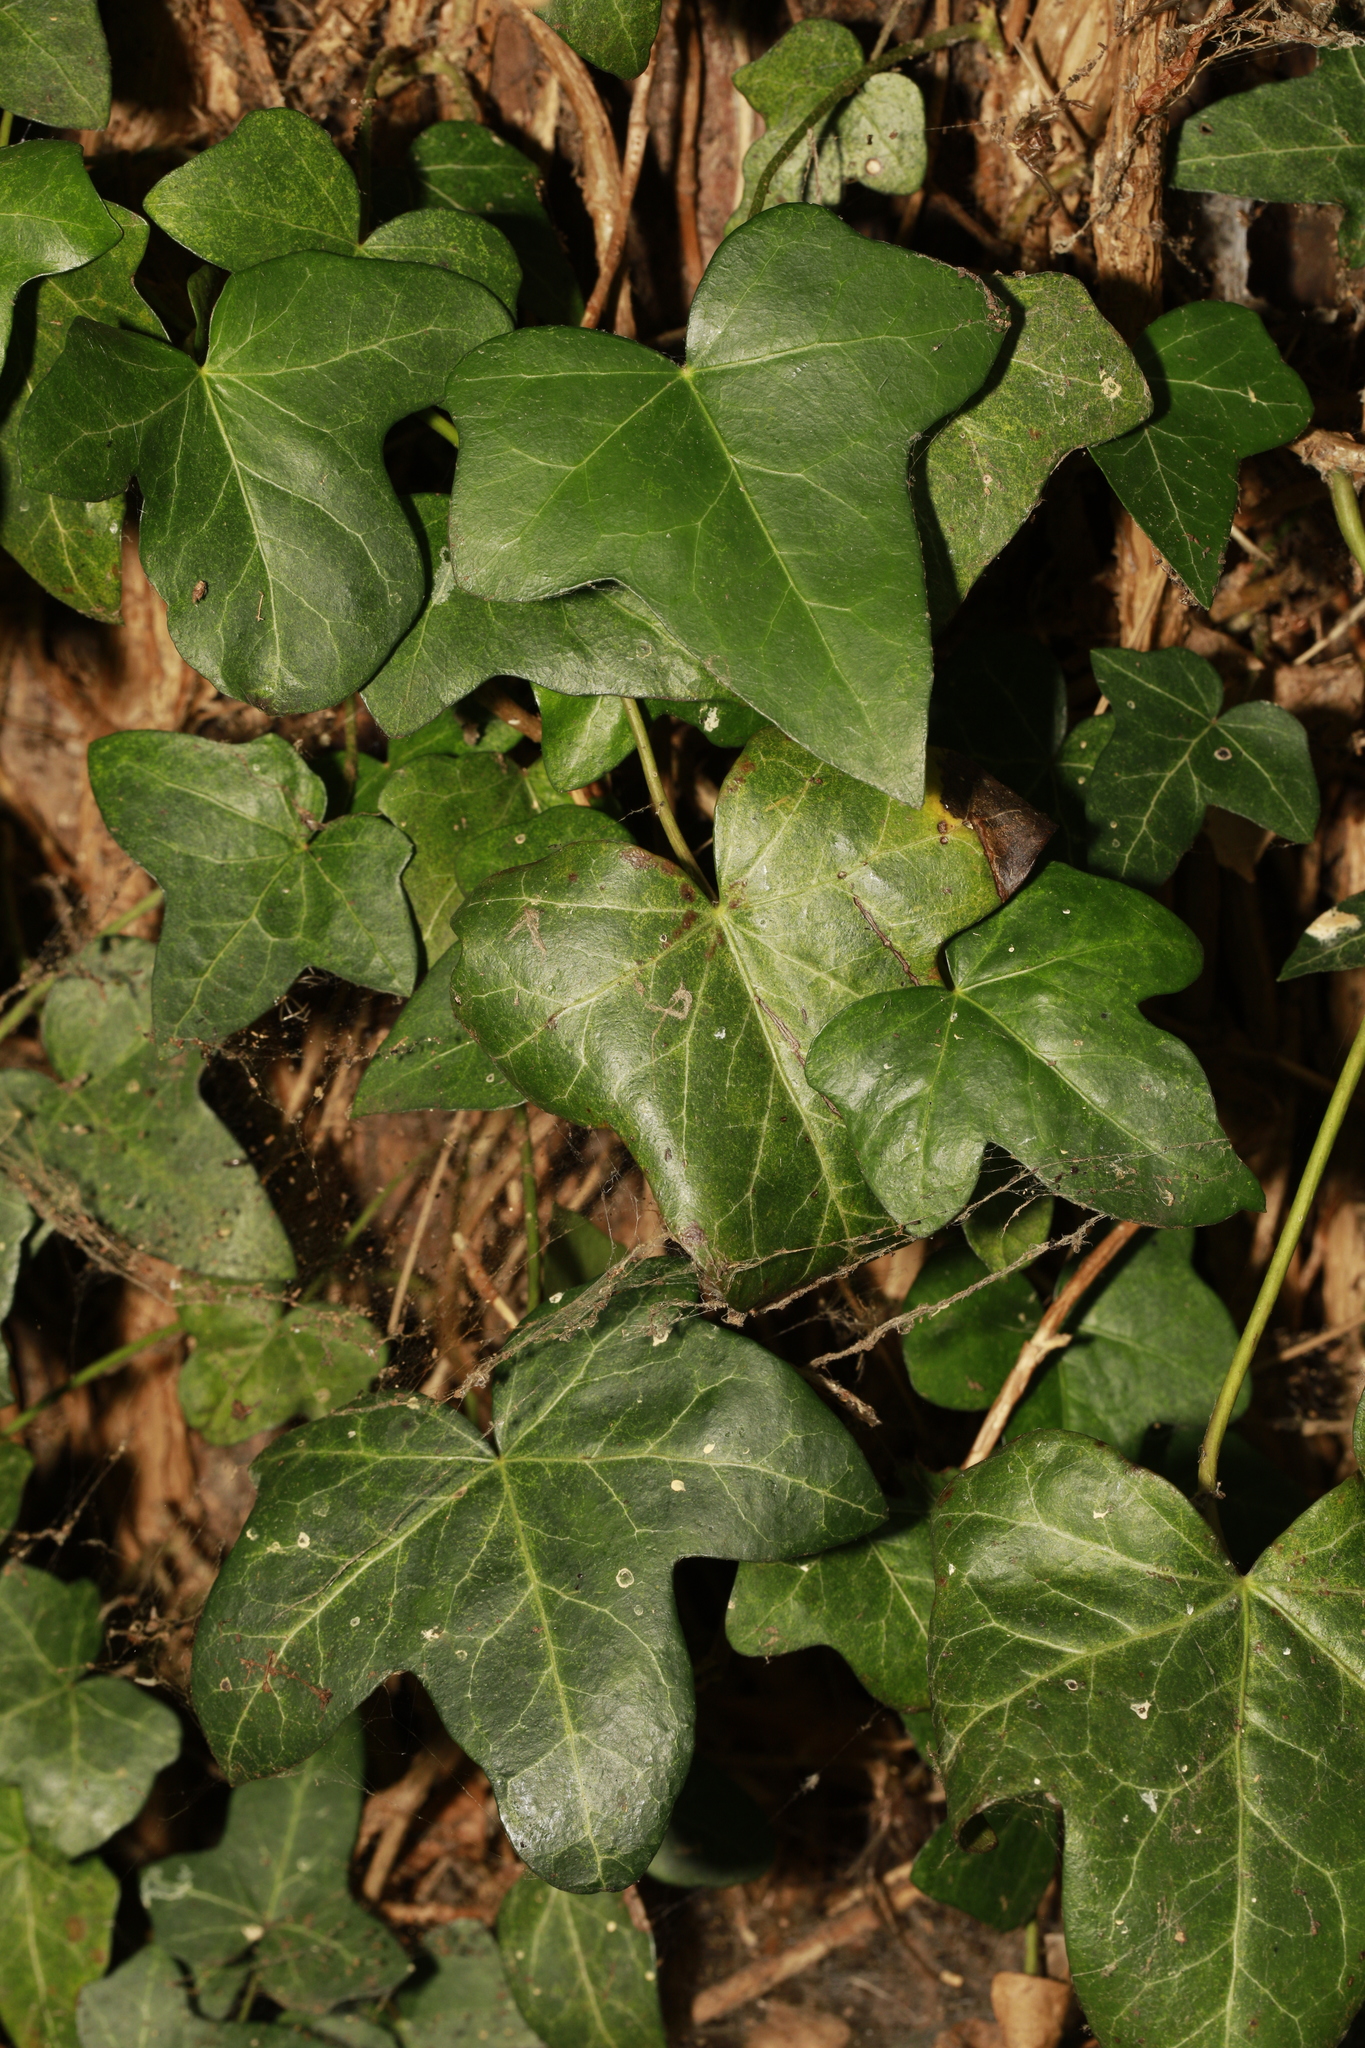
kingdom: Plantae
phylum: Tracheophyta
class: Magnoliopsida
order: Apiales
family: Araliaceae
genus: Hedera
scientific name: Hedera helix
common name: Ivy
